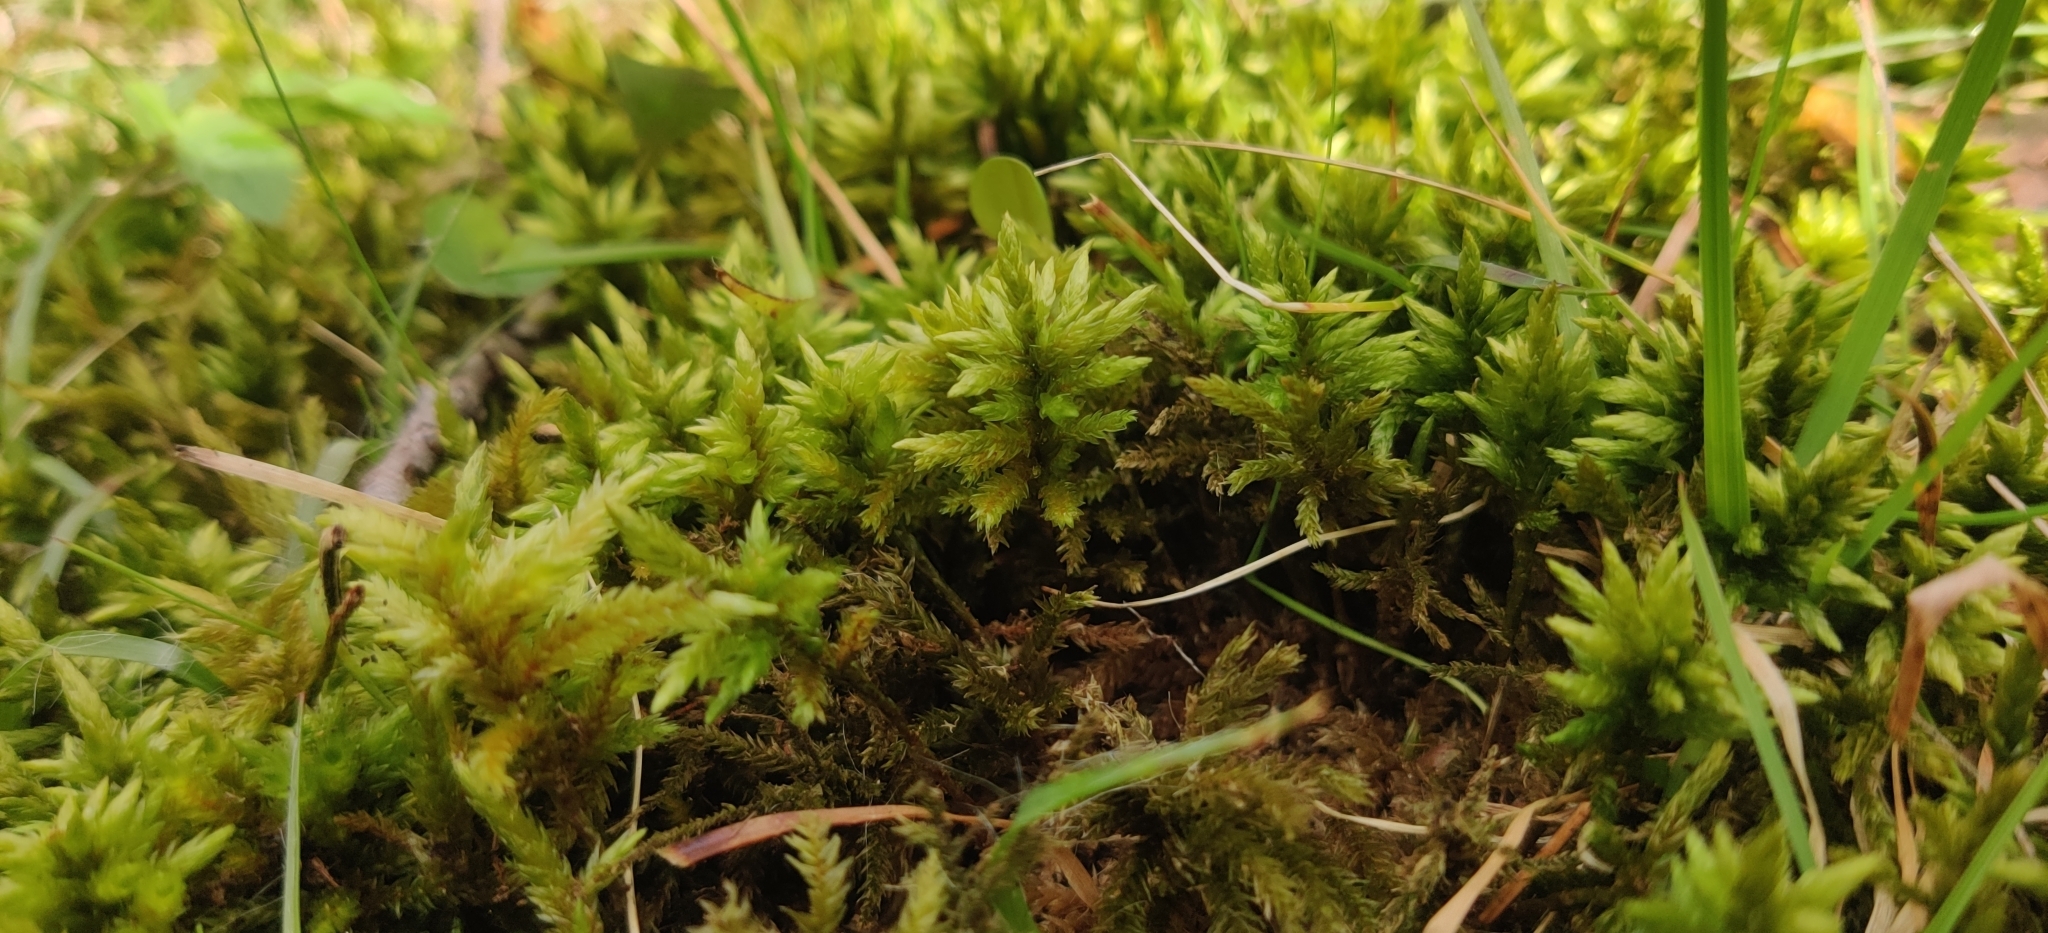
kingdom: Plantae
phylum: Bryophyta
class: Bryopsida
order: Hypnales
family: Climaciaceae
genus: Climacium
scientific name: Climacium dendroides
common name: Northern tree moss
